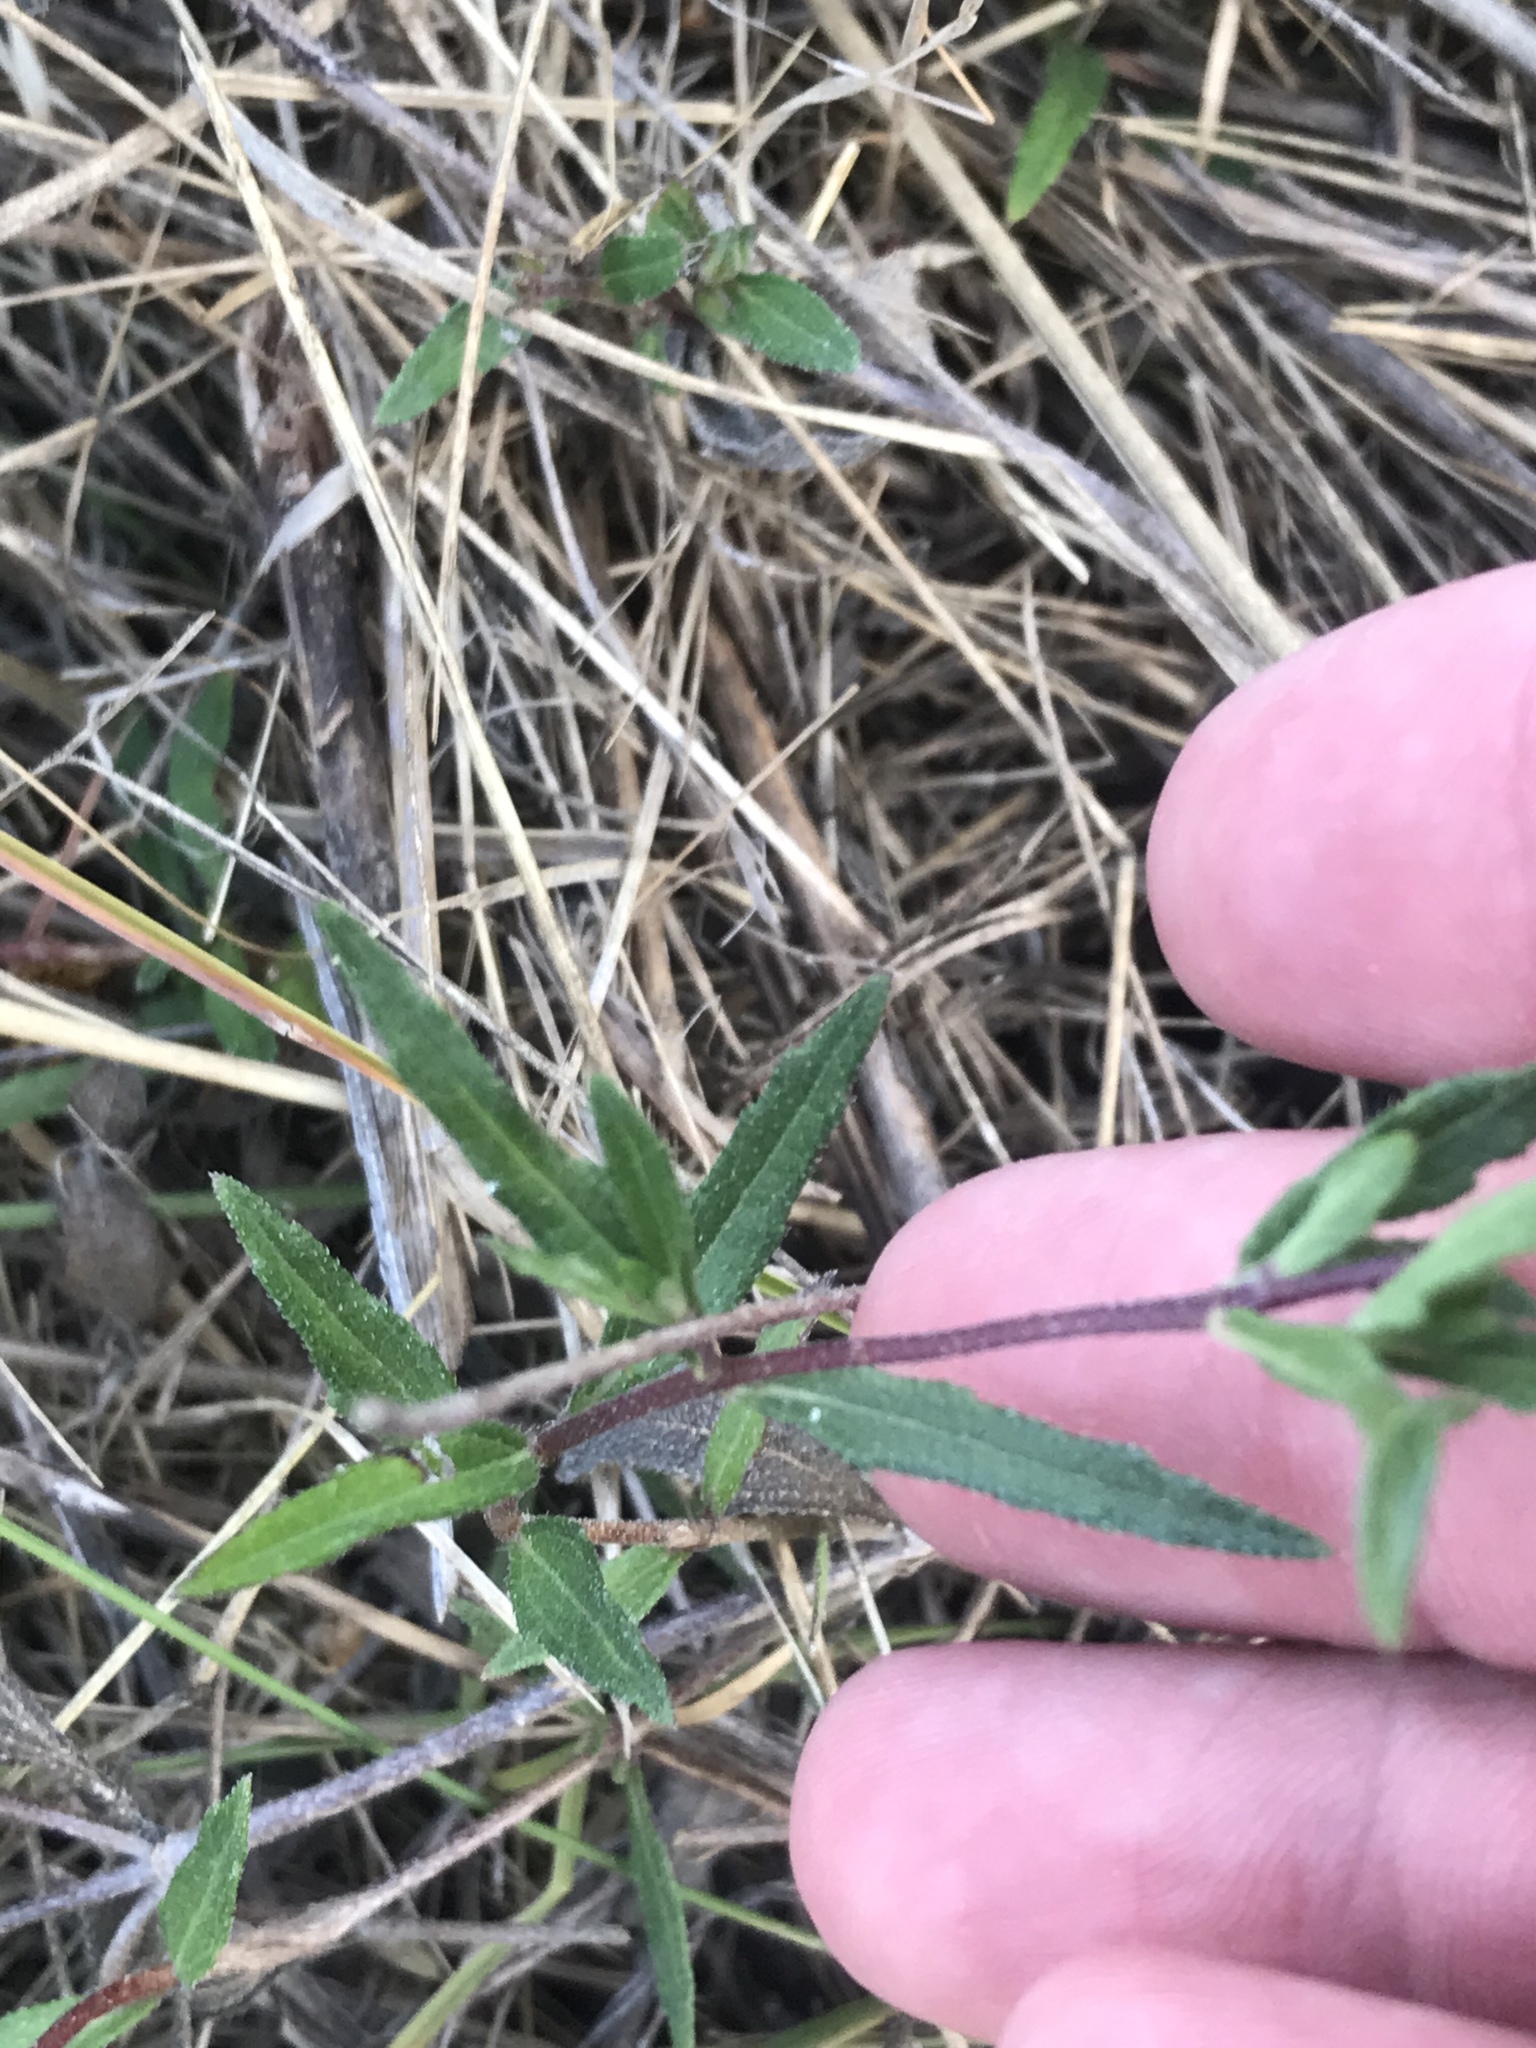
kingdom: Plantae
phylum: Tracheophyta
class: Magnoliopsida
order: Asterales
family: Asteraceae
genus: Wedelia
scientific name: Wedelia acapulcensis
